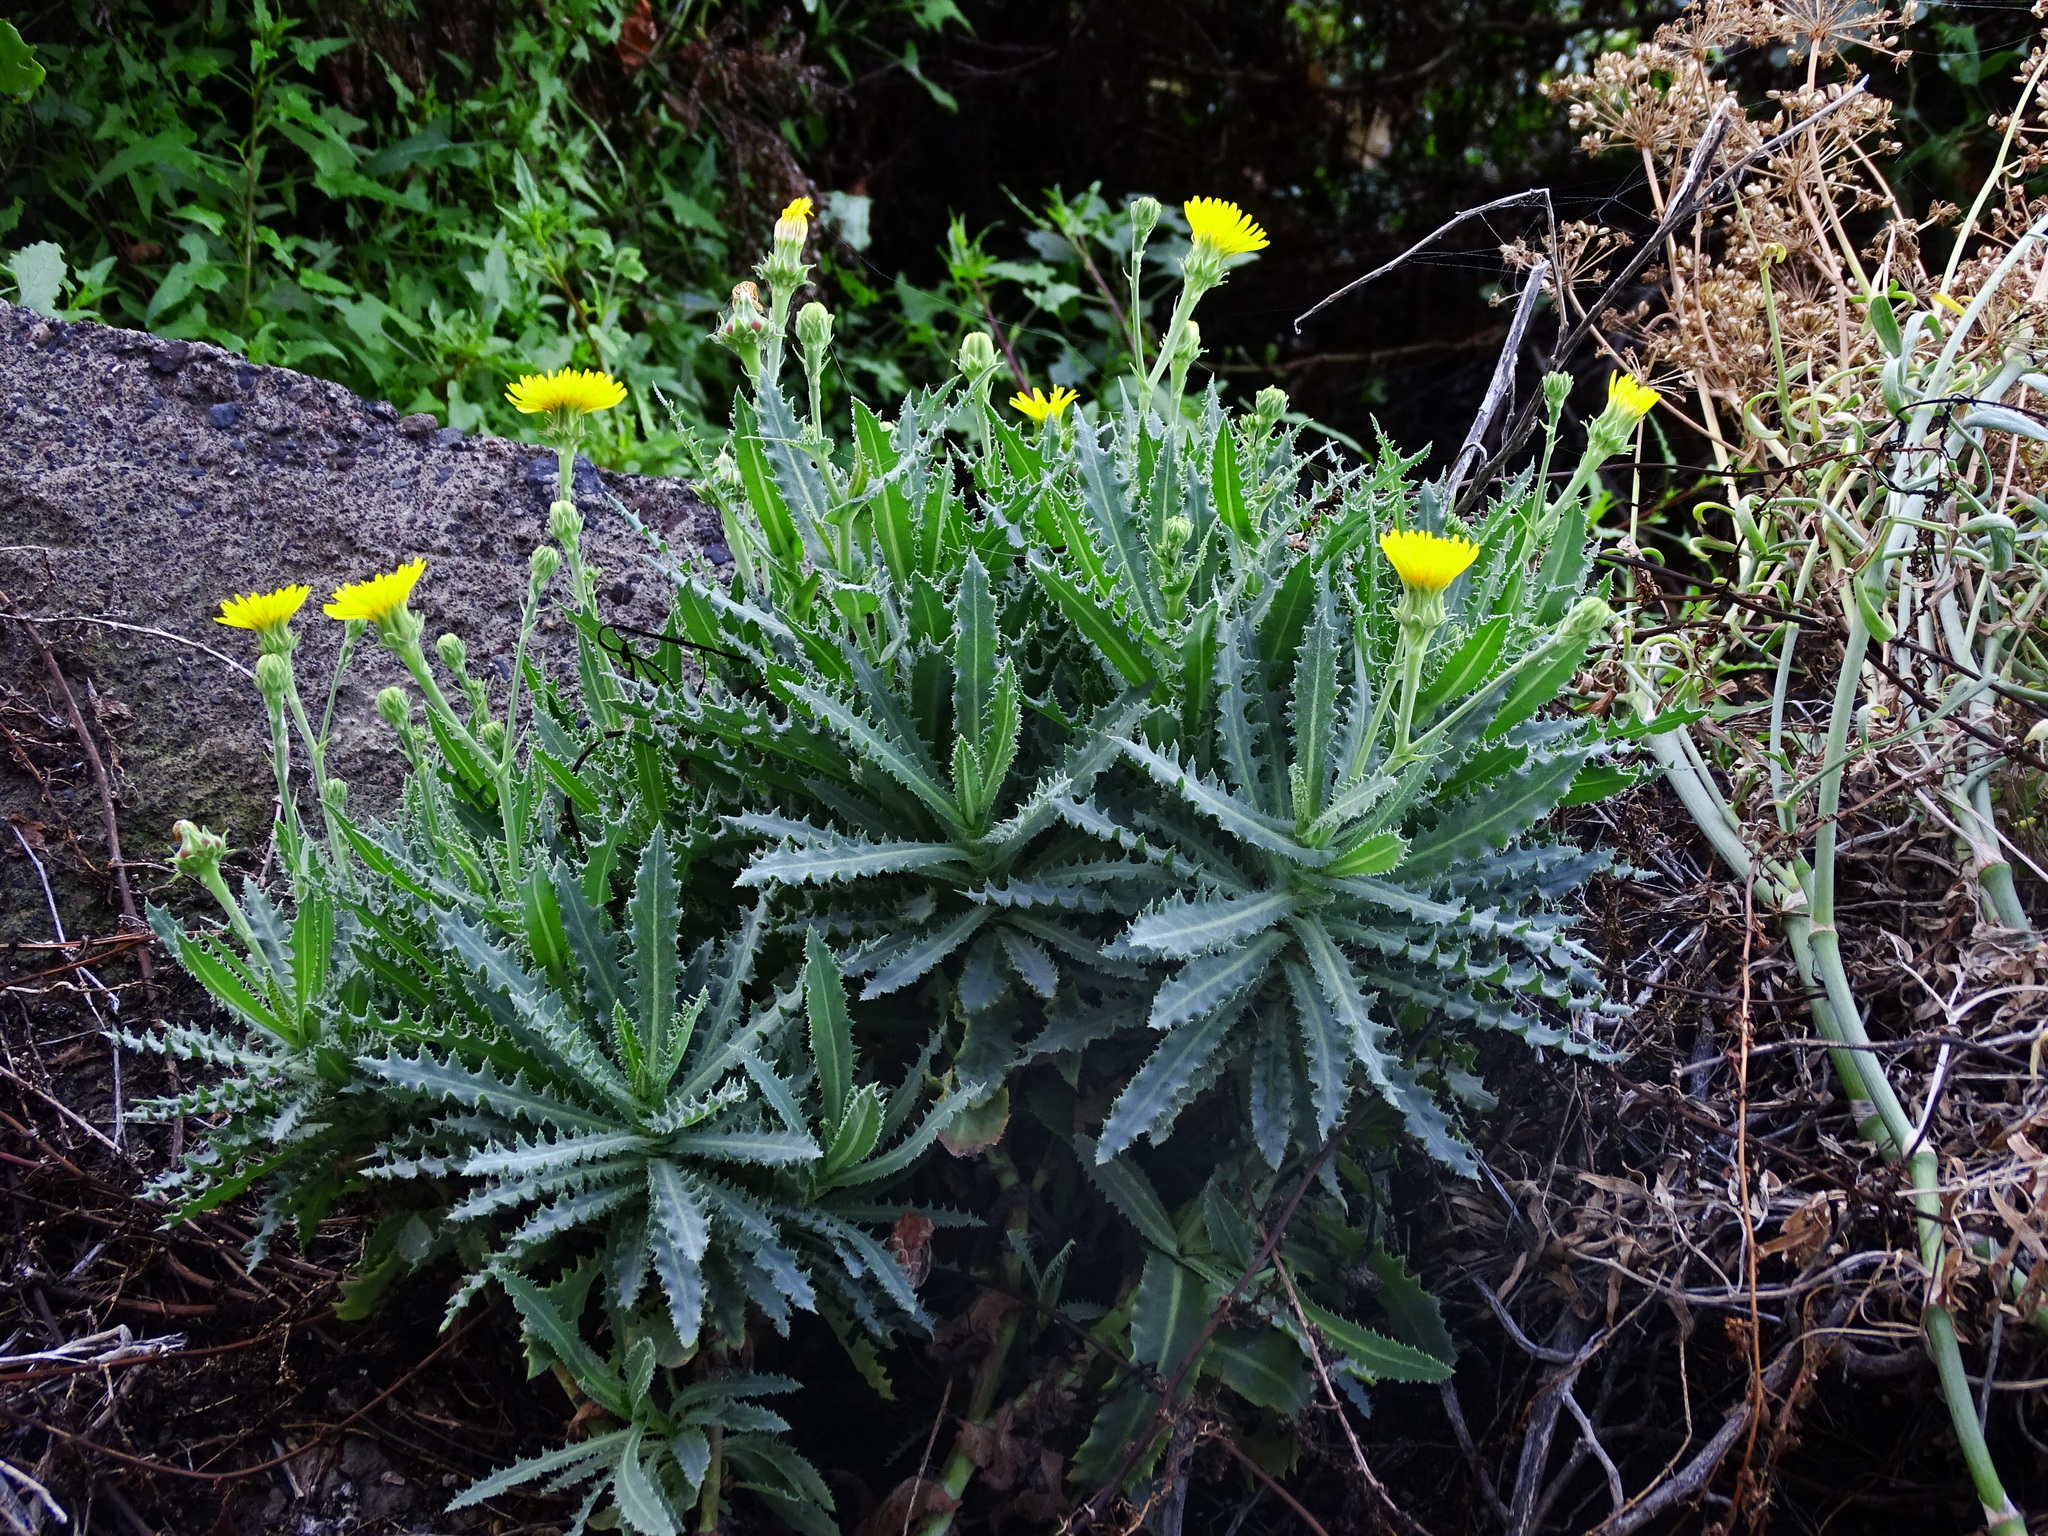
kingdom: Plantae
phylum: Tracheophyta
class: Magnoliopsida
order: Asterales
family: Asteraceae
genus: Reichardia
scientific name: Reichardia ligulata
